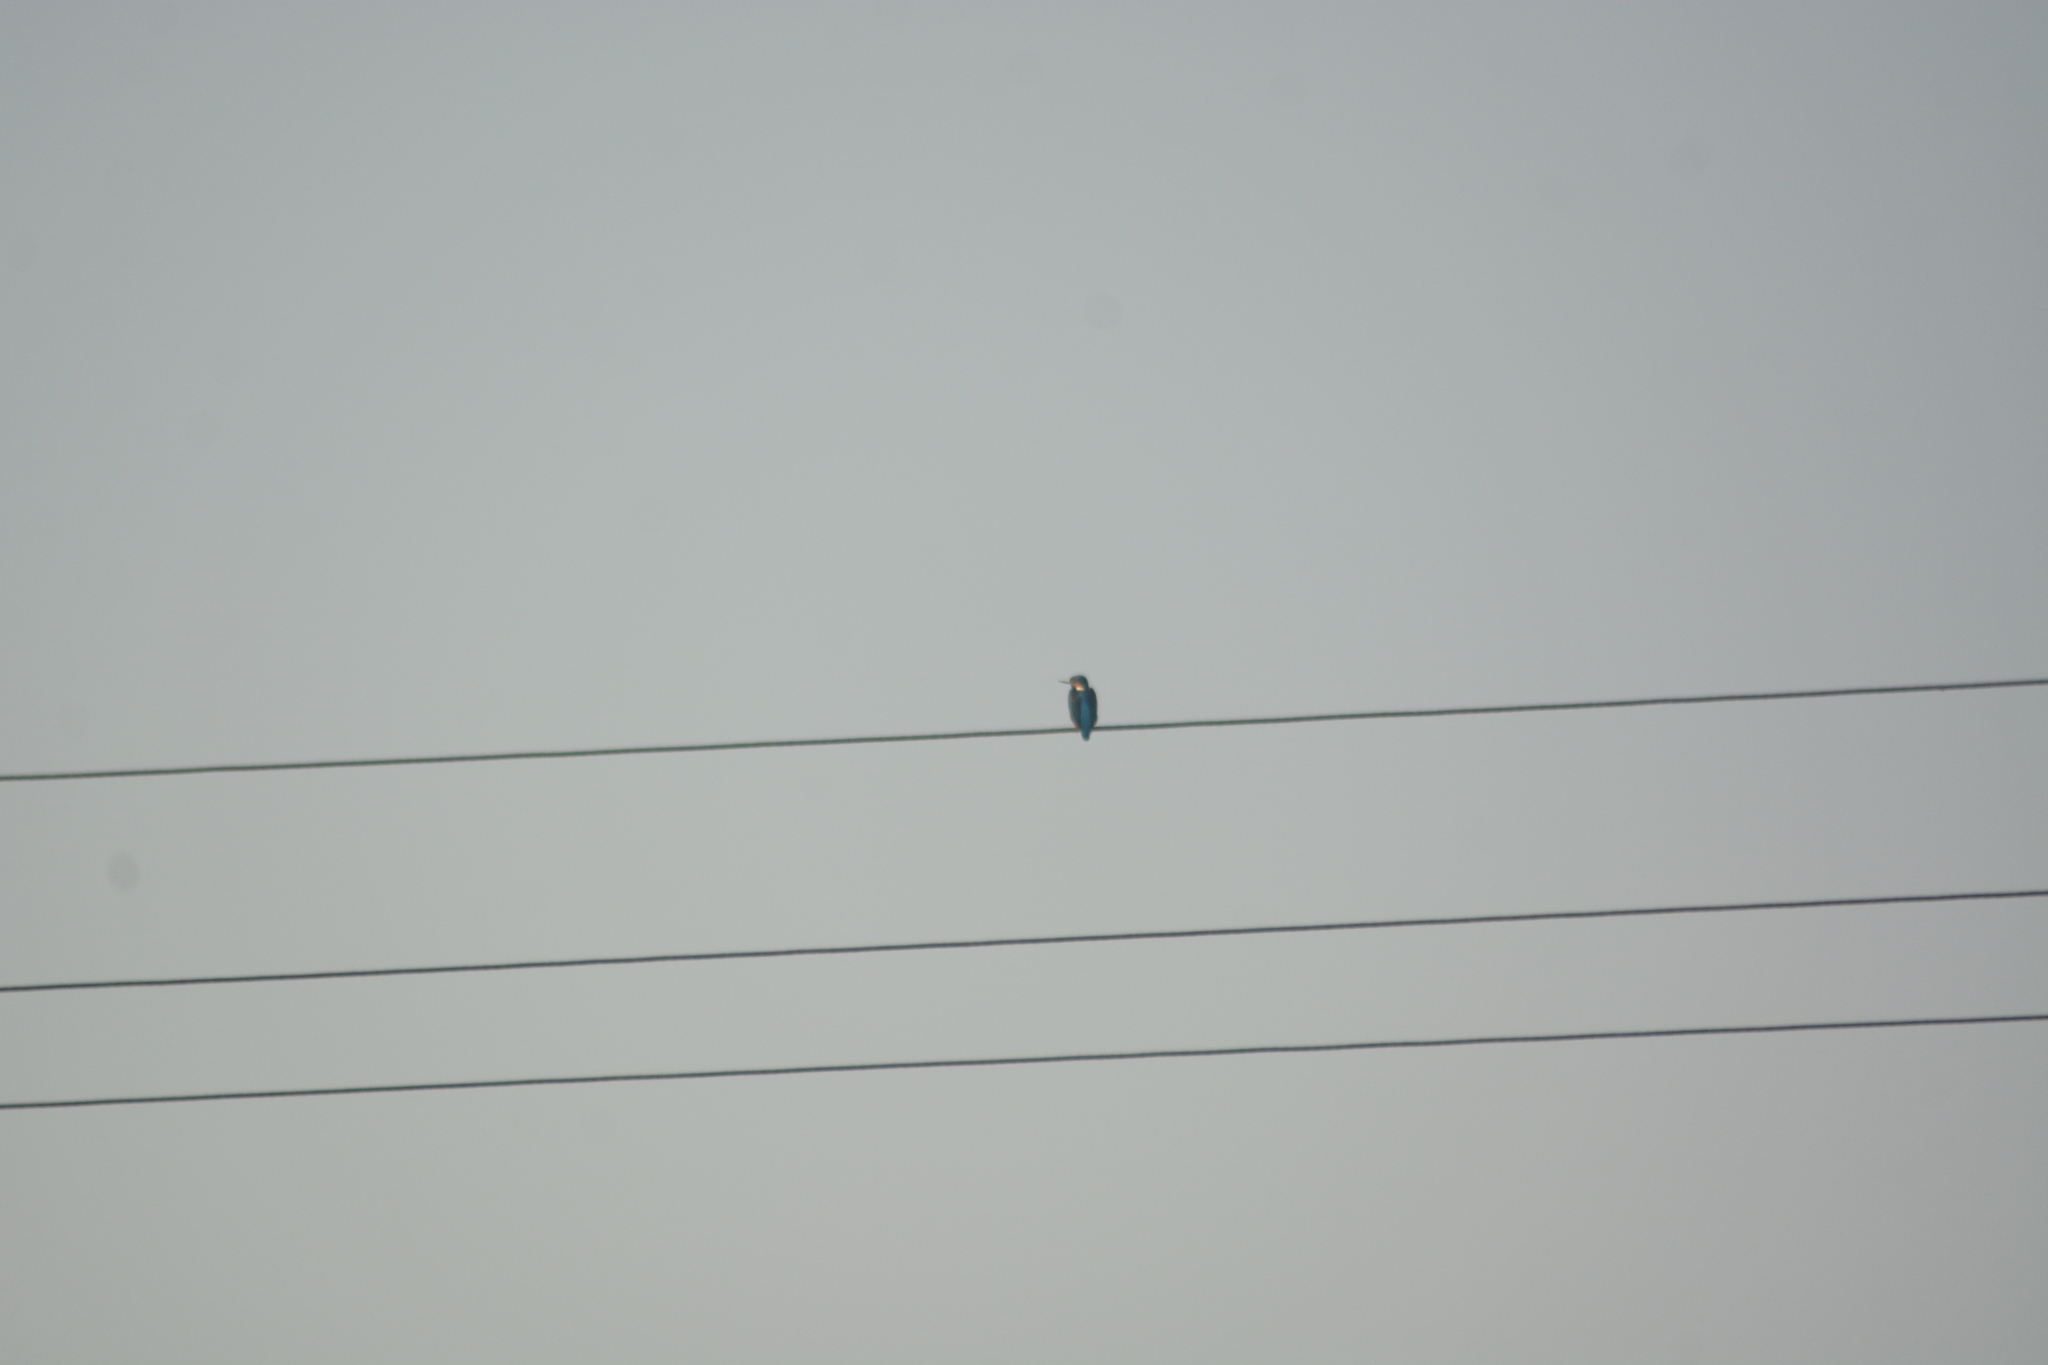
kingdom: Animalia
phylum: Chordata
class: Aves
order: Coraciiformes
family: Alcedinidae
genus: Alcedo
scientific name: Alcedo atthis
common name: Common kingfisher
